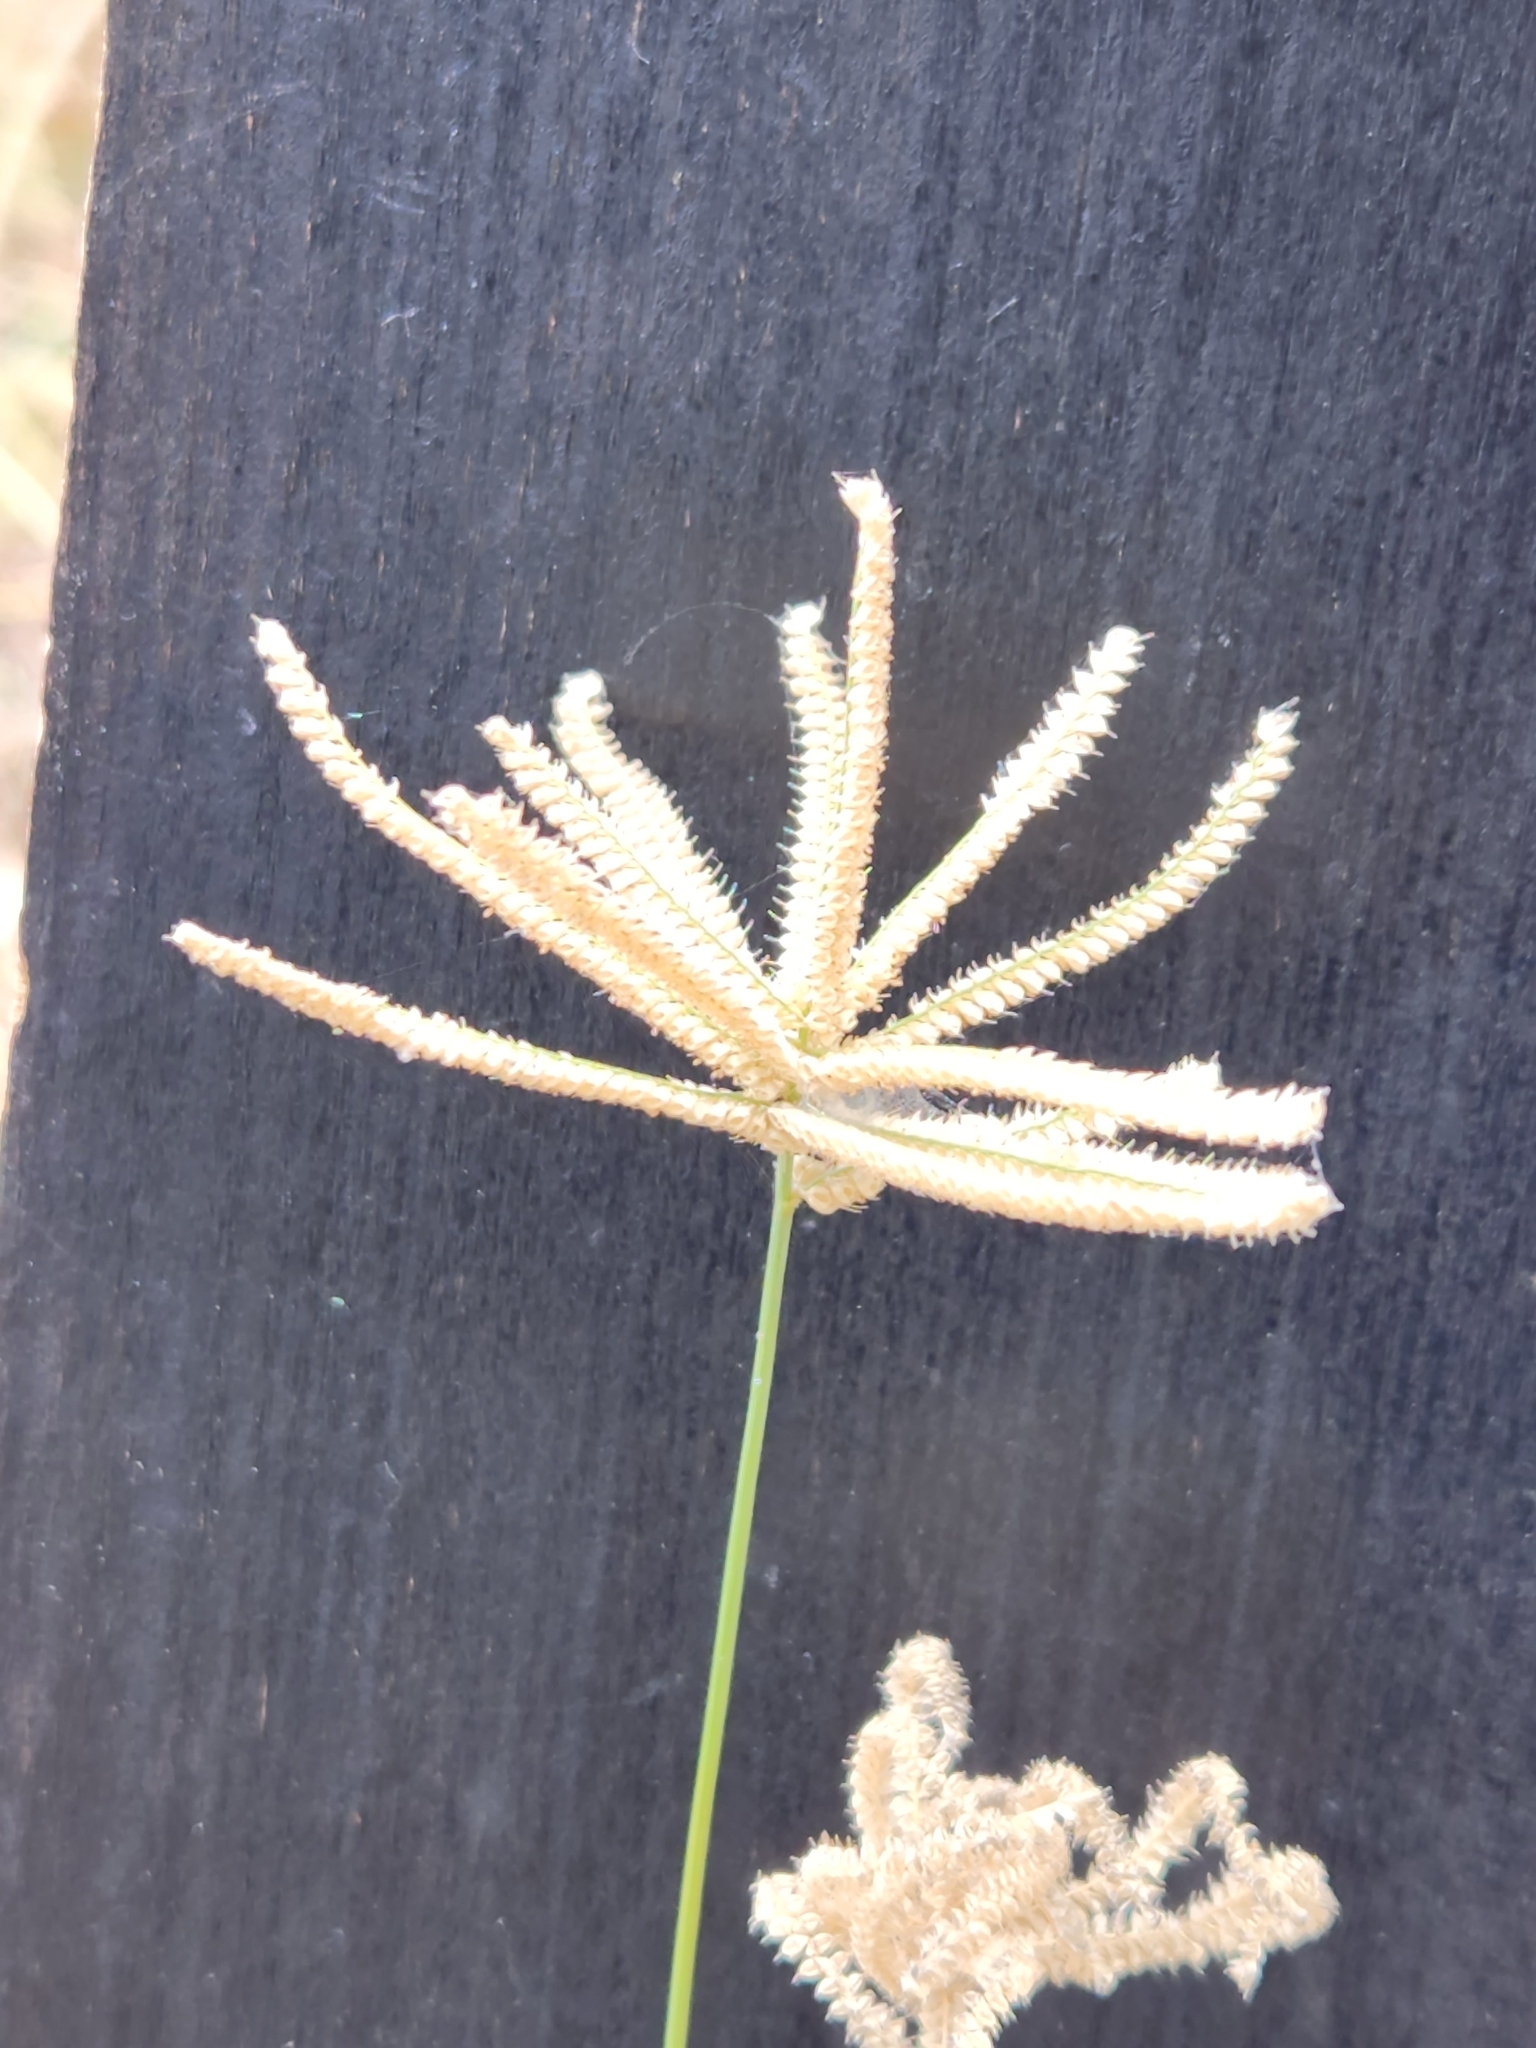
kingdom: Plantae
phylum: Tracheophyta
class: Liliopsida
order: Poales
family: Poaceae
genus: Chloris
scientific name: Chloris cucullata
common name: Hooded windmill grass
